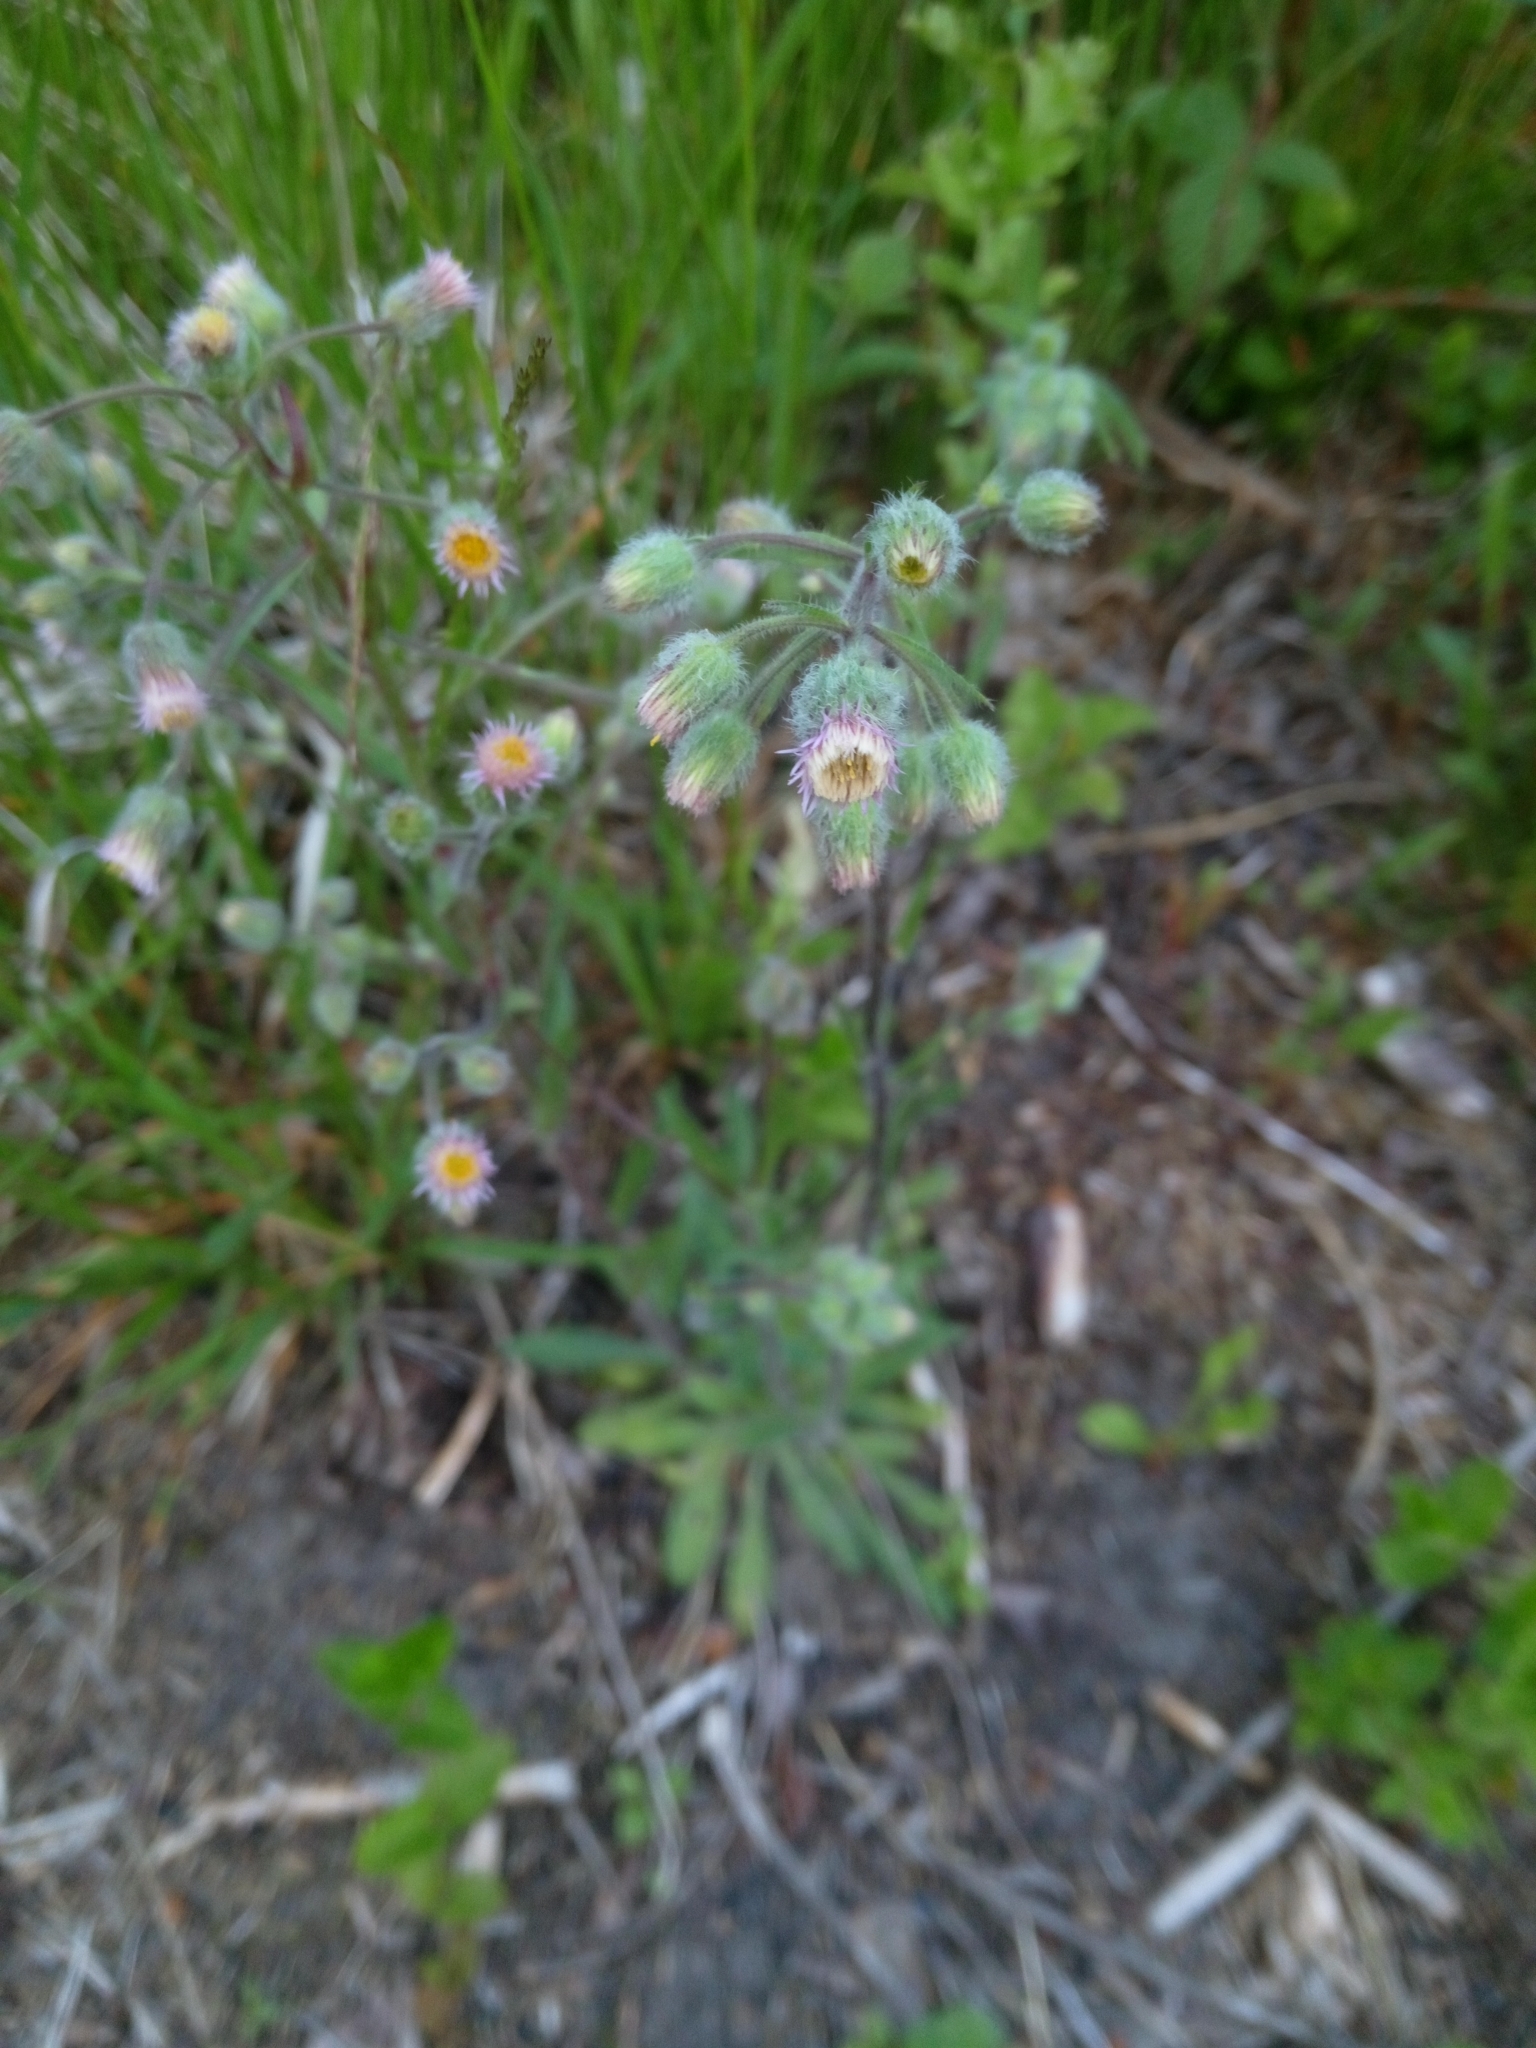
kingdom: Plantae
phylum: Tracheophyta
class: Magnoliopsida
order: Asterales
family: Asteraceae
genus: Erigeron
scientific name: Erigeron acris
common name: Blue fleabane
